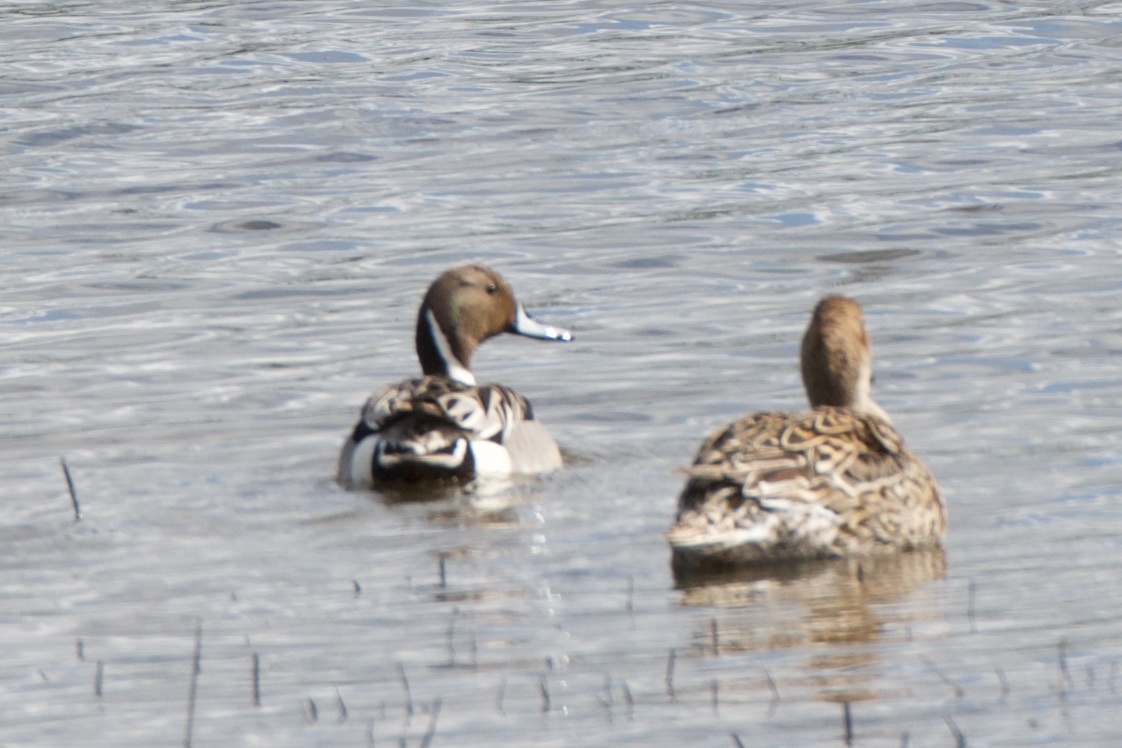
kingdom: Animalia
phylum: Chordata
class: Aves
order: Anseriformes
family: Anatidae
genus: Anas
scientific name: Anas acuta
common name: Northern pintail
